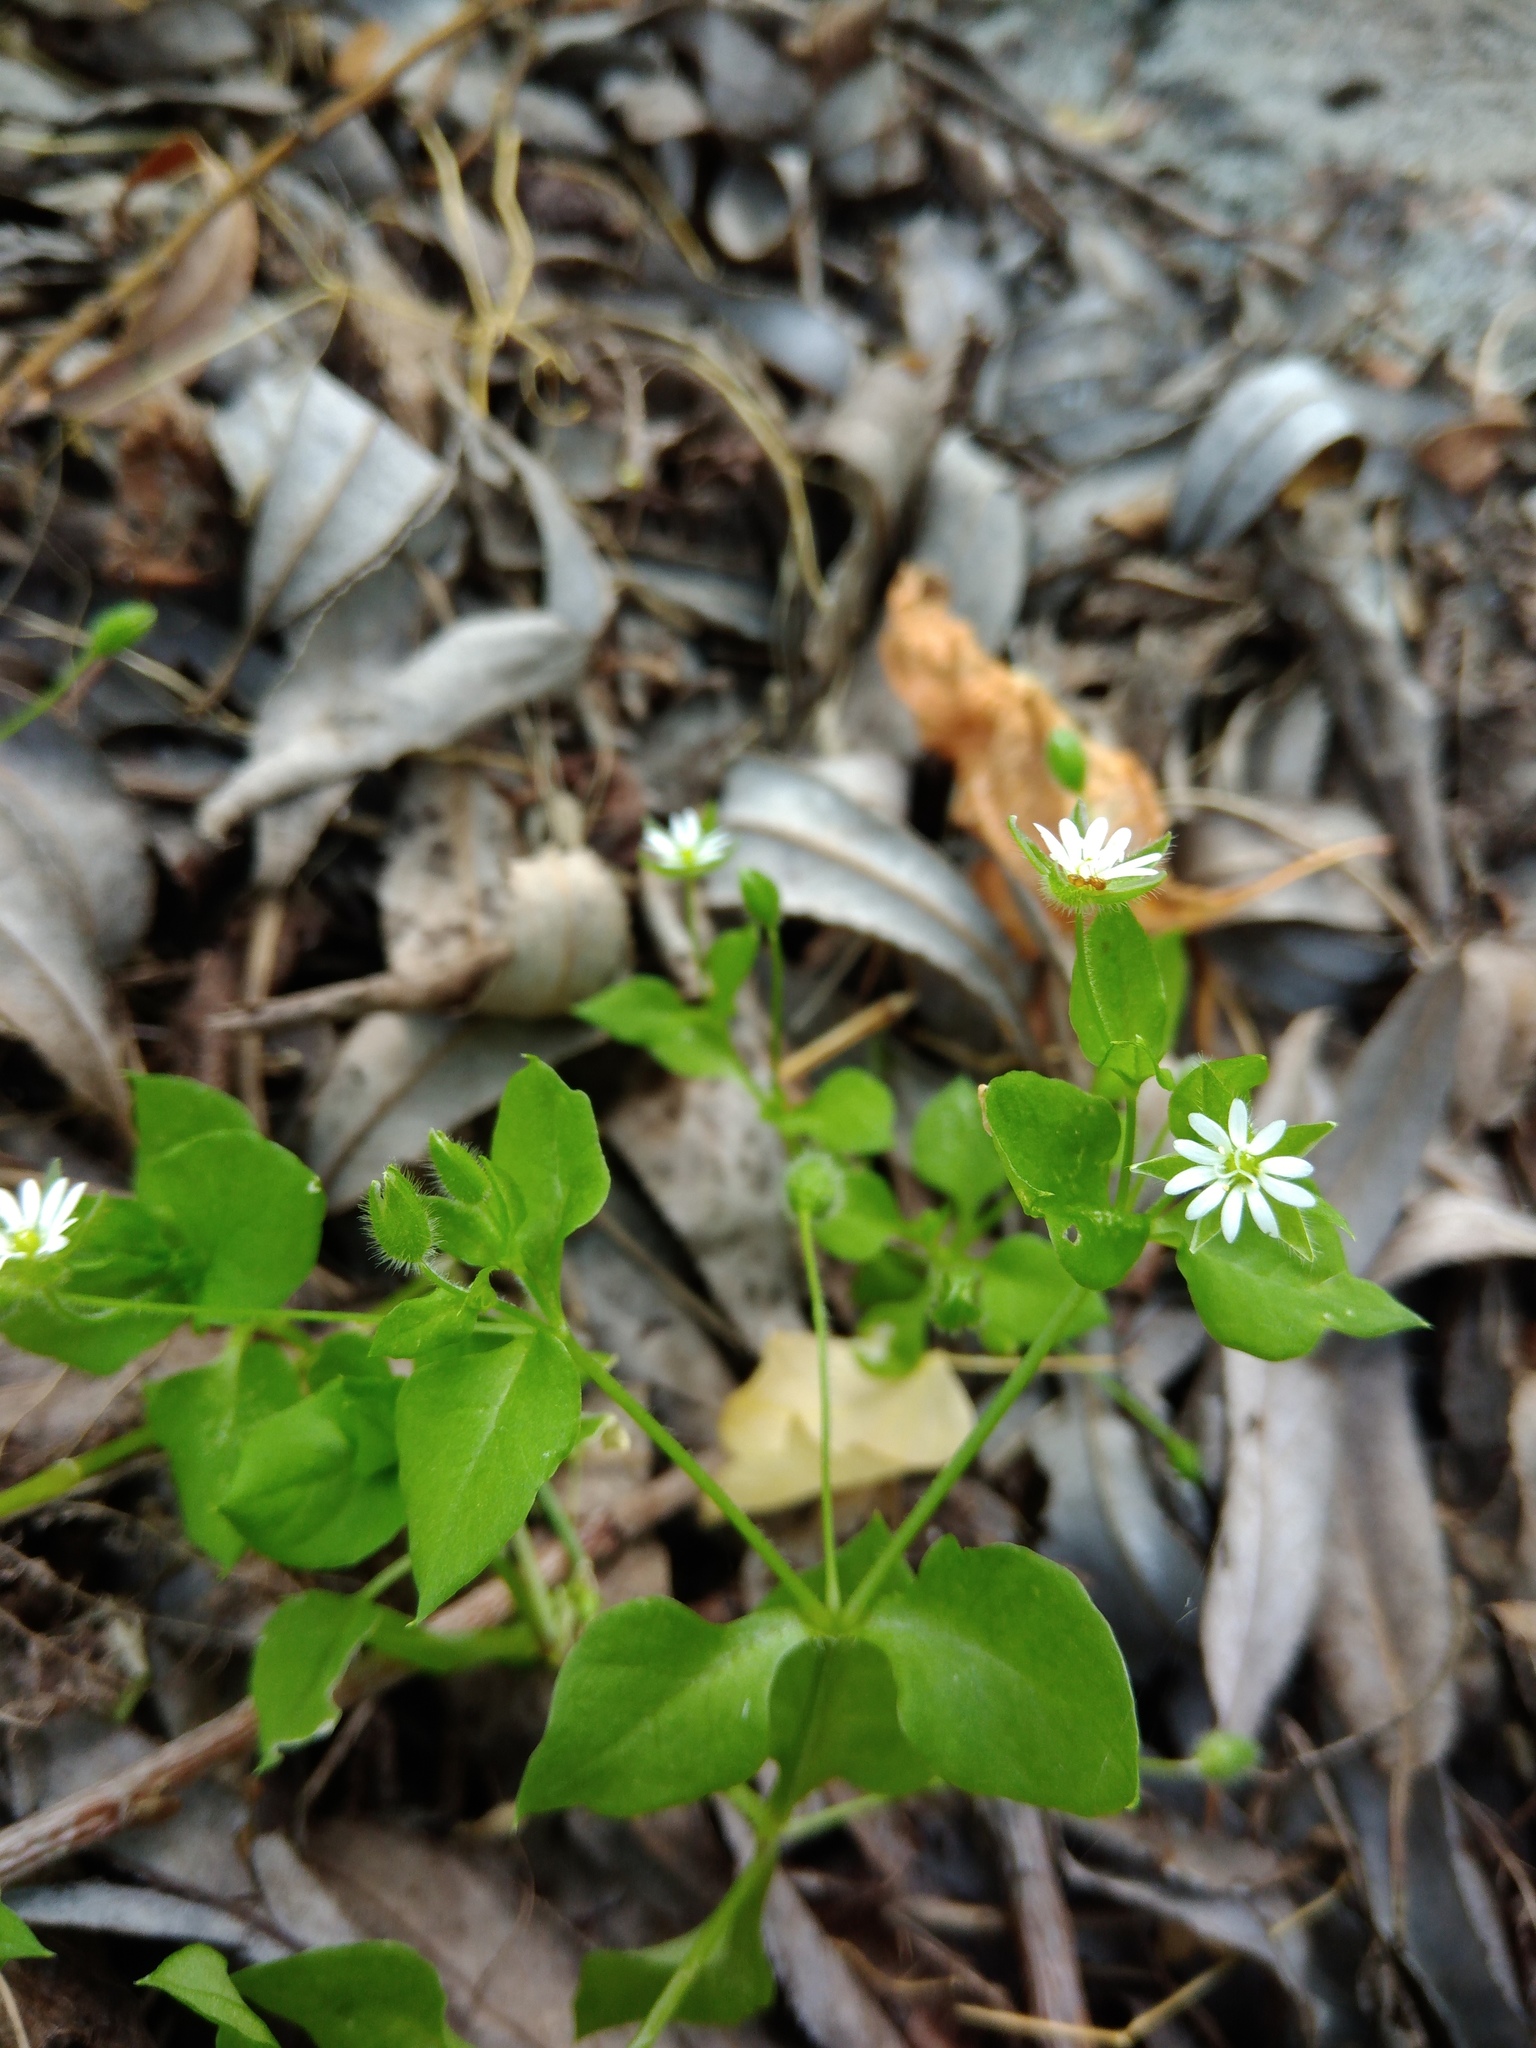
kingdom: Plantae
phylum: Tracheophyta
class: Magnoliopsida
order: Caryophyllales
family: Caryophyllaceae
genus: Stellaria
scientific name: Stellaria aquatica
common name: Water chickweed
